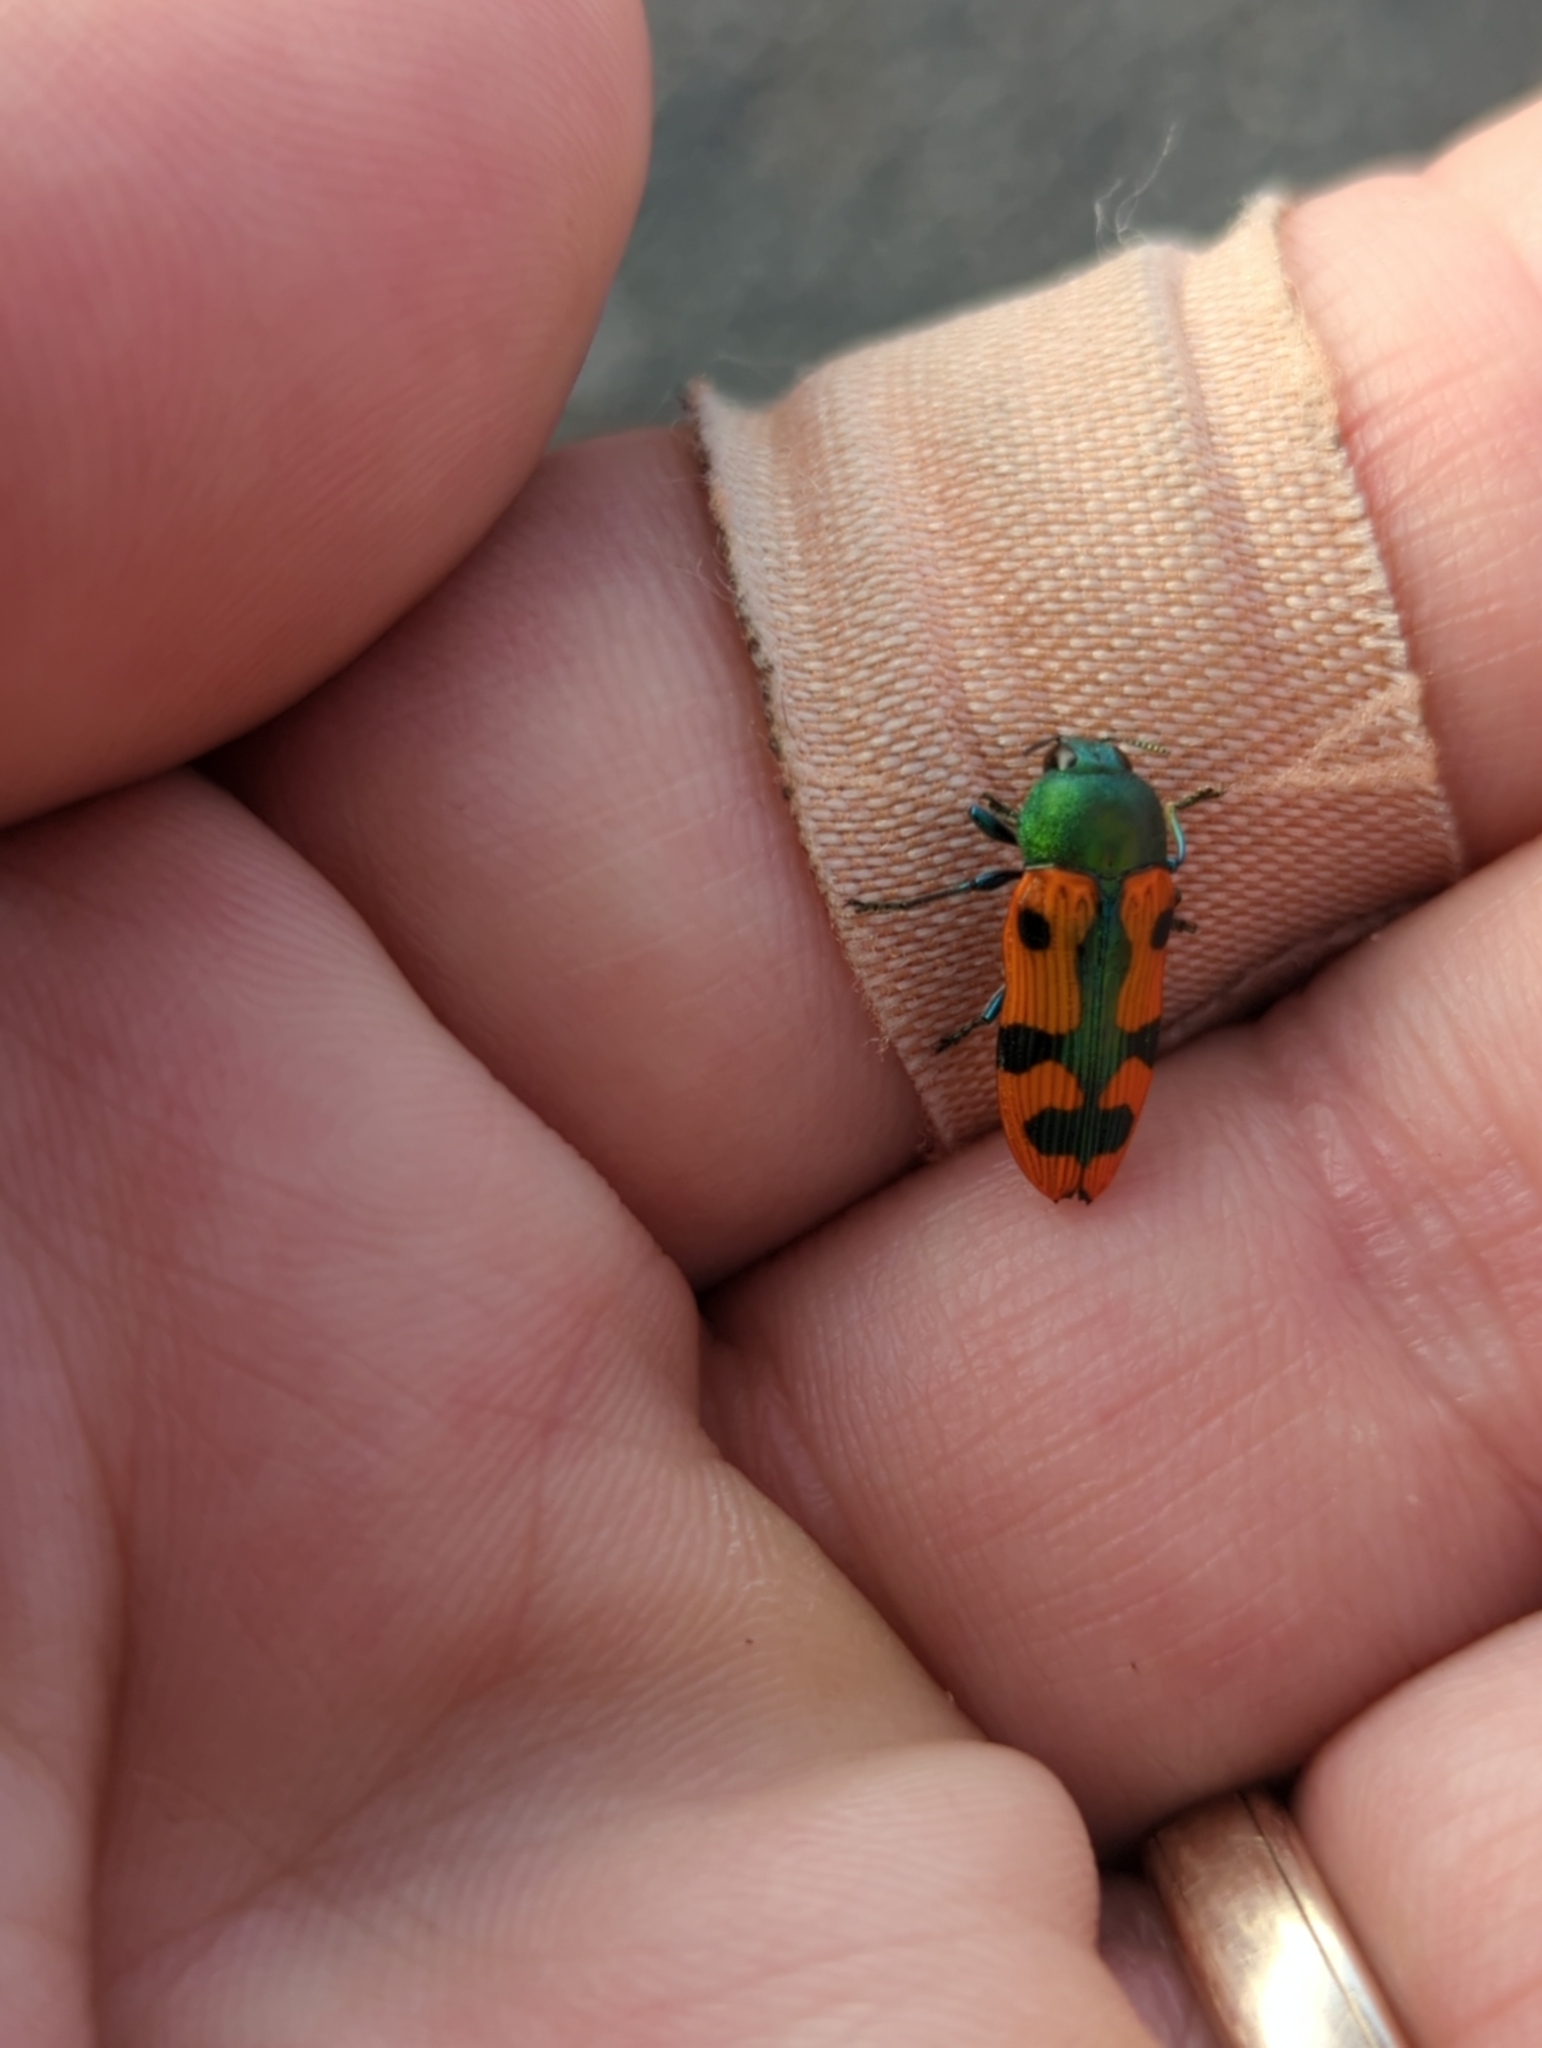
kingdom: Animalia
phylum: Arthropoda
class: Insecta
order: Coleoptera
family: Buprestidae
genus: Castiarina
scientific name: Castiarina scalaris
